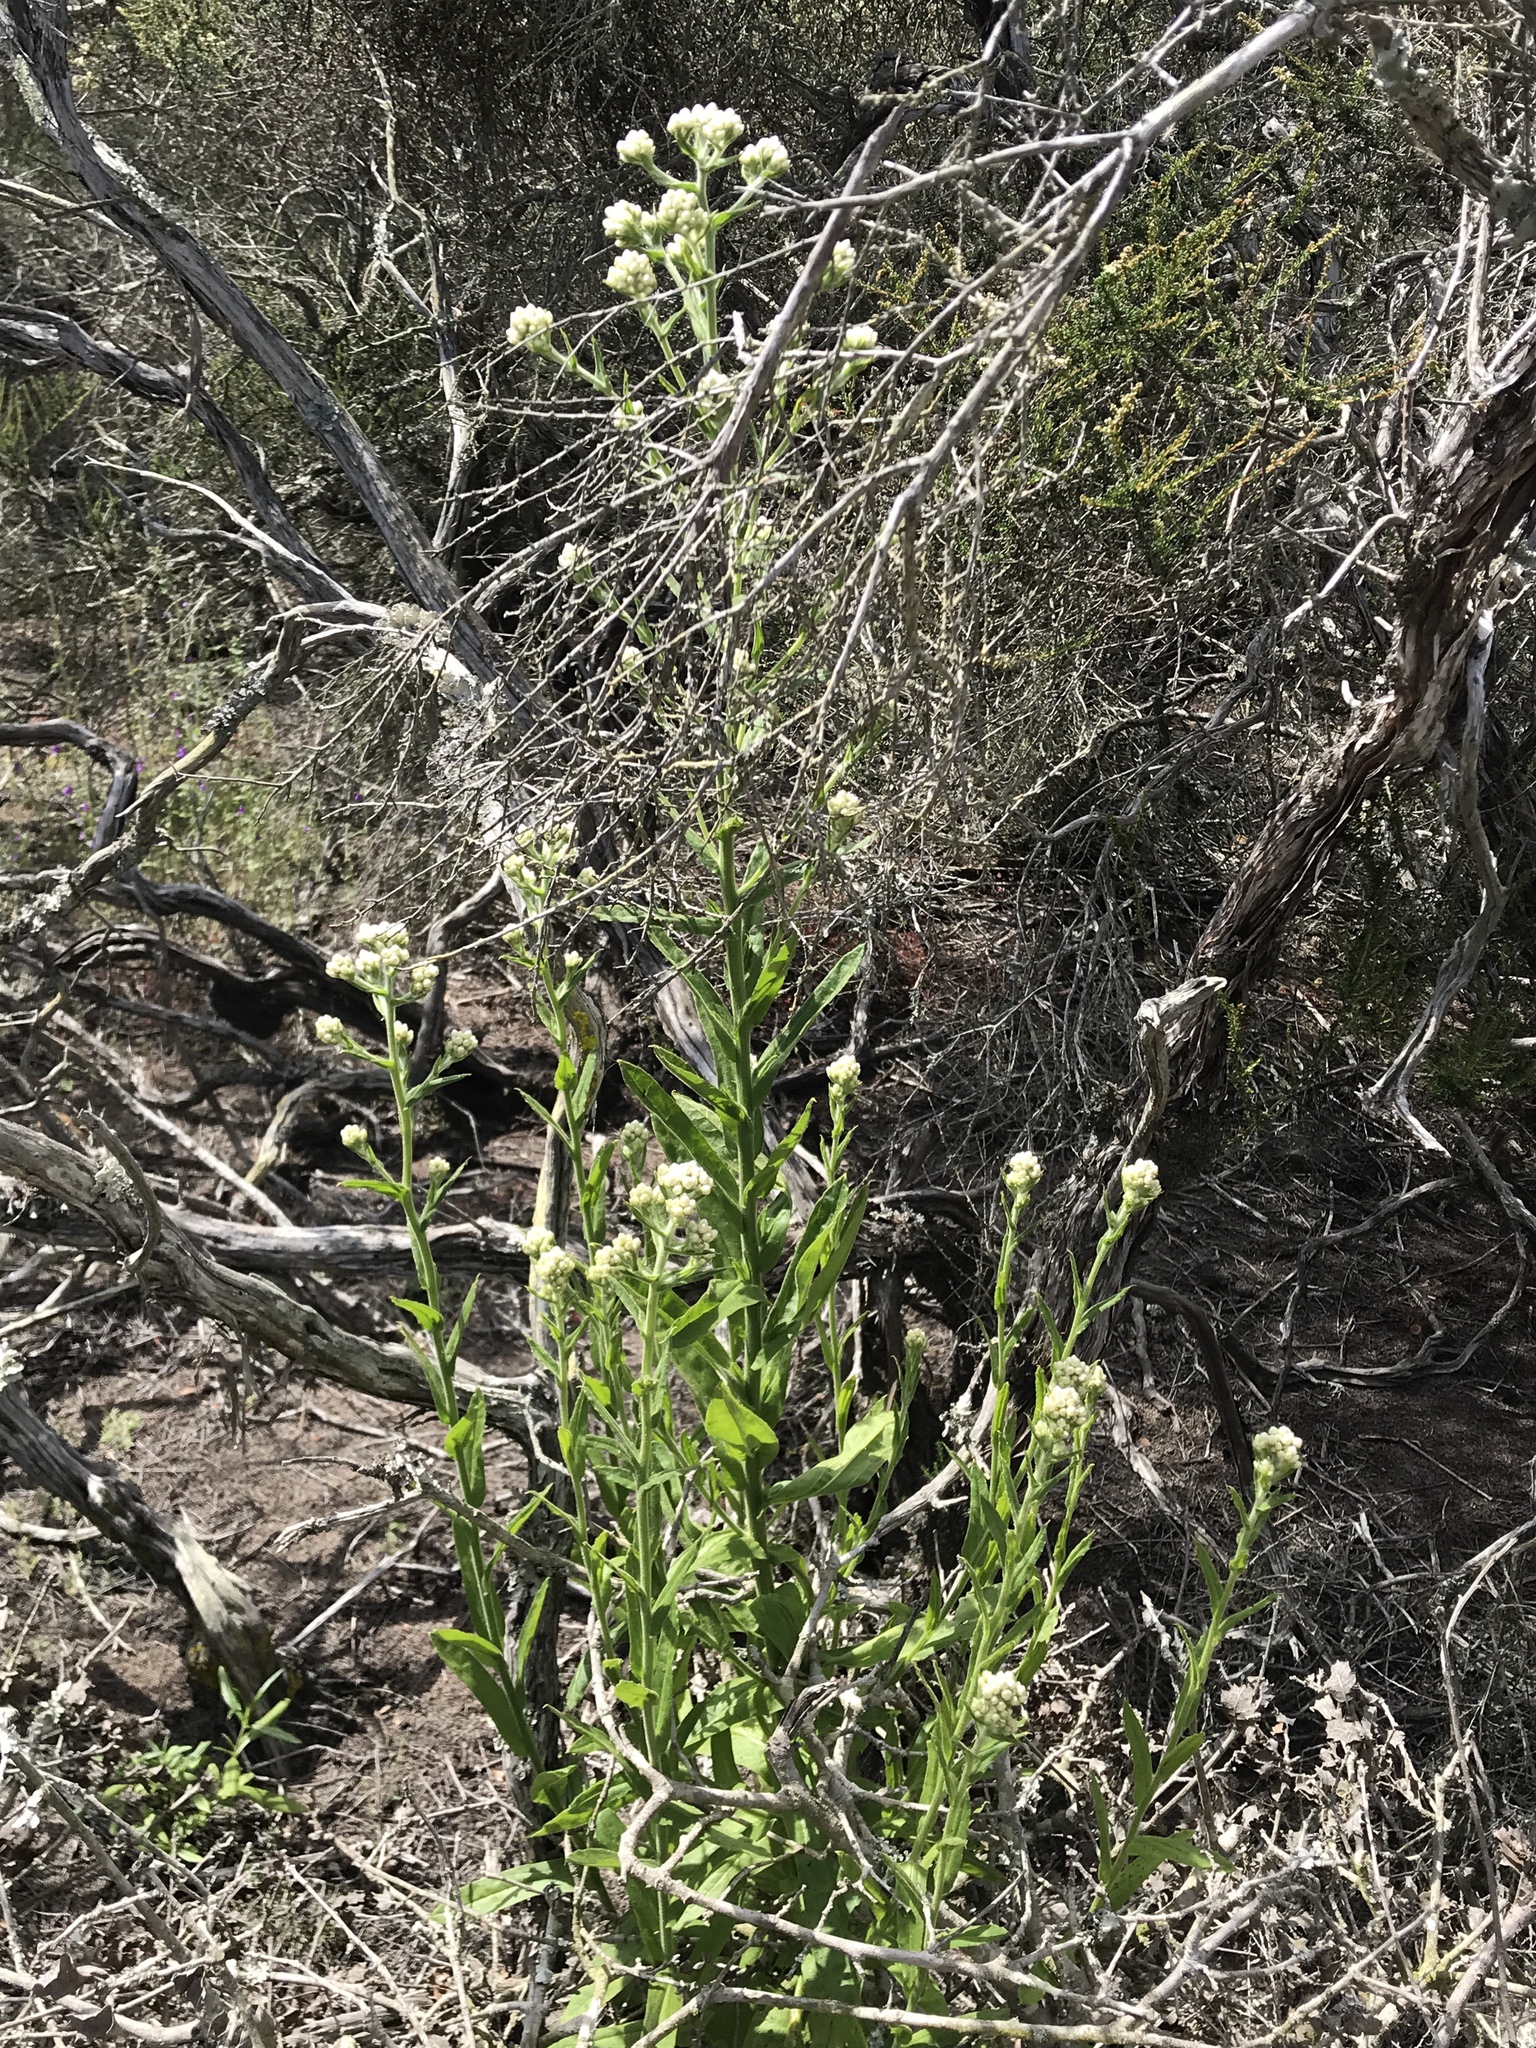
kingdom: Plantae
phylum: Tracheophyta
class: Magnoliopsida
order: Asterales
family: Asteraceae
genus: Pseudognaphalium
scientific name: Pseudognaphalium californicum
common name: California rabbit-tobacco
